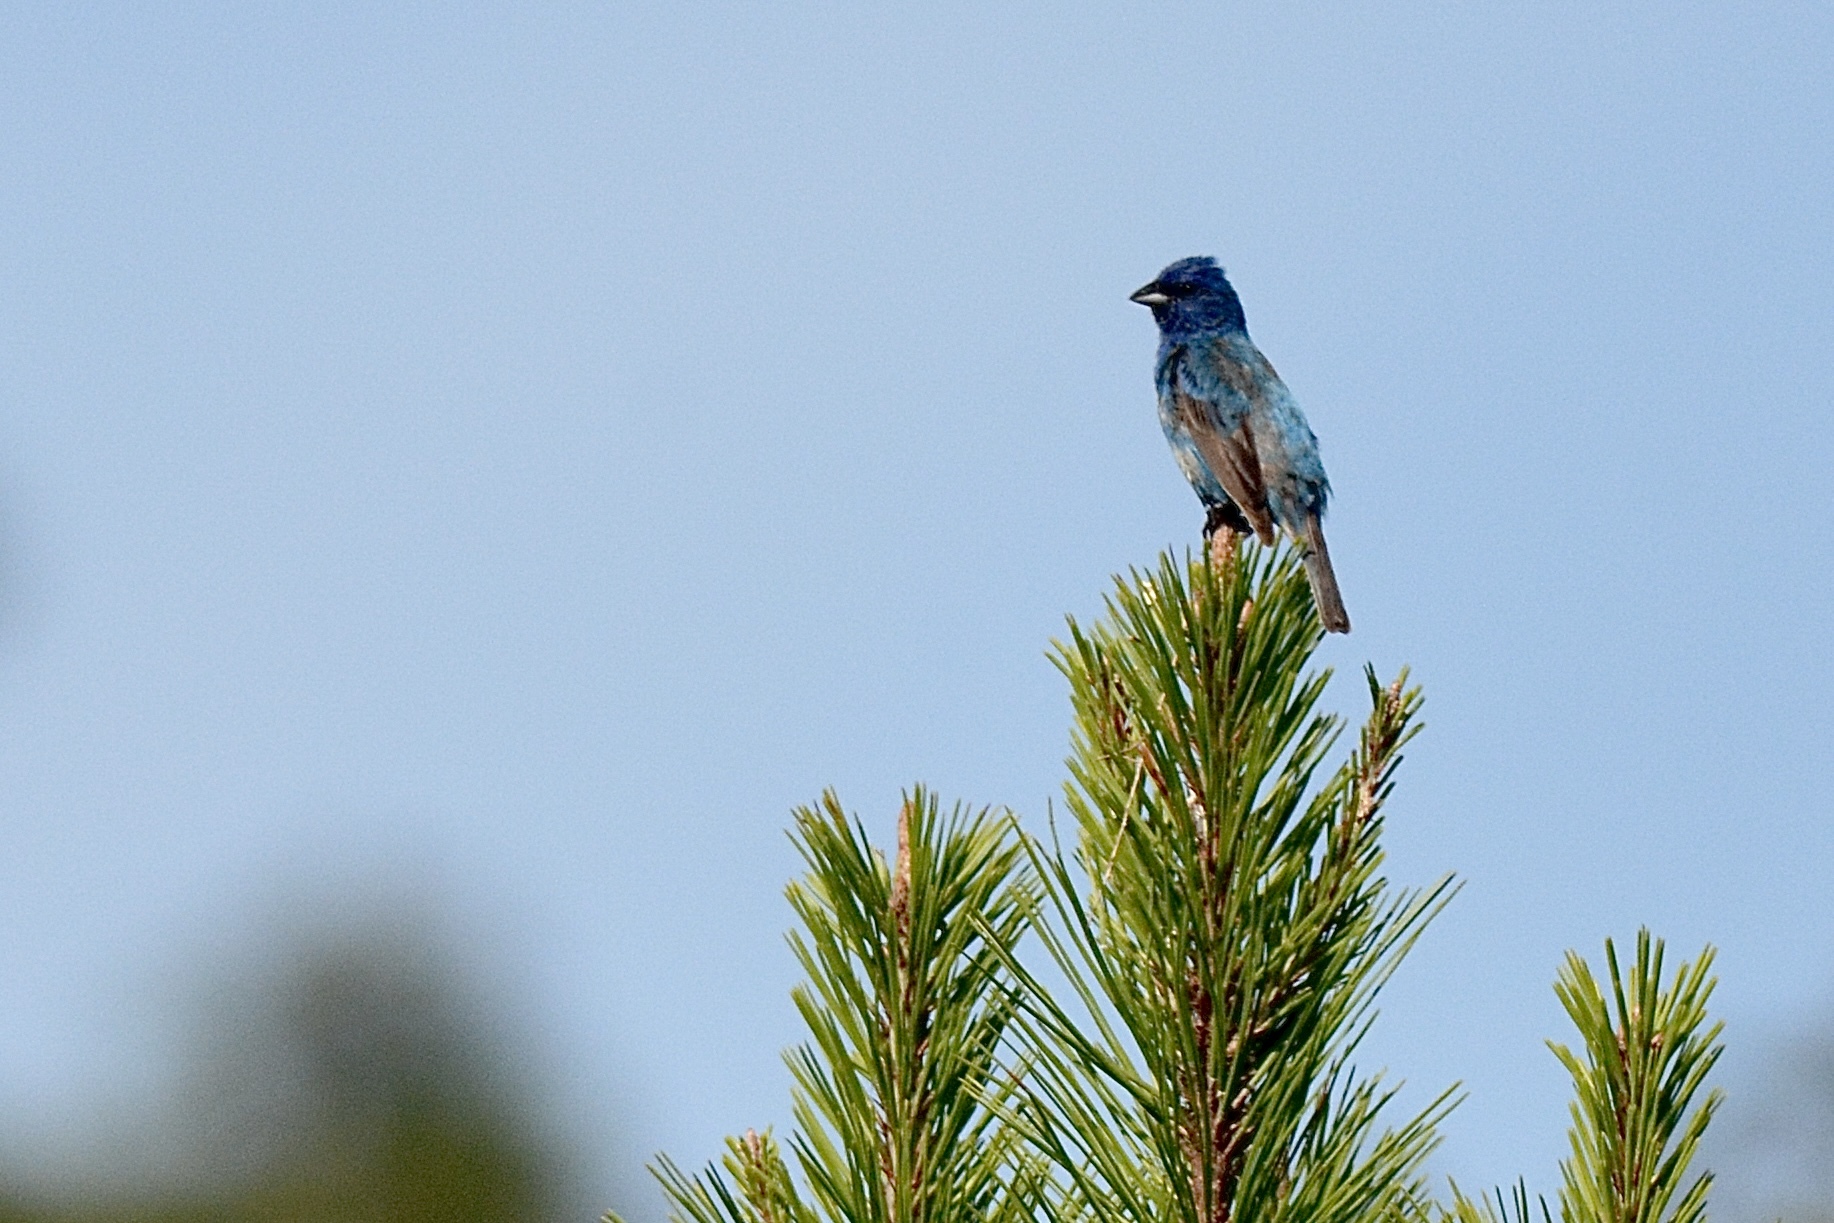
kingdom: Animalia
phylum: Chordata
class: Aves
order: Passeriformes
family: Cardinalidae
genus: Passerina
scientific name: Passerina cyanea
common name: Indigo bunting
